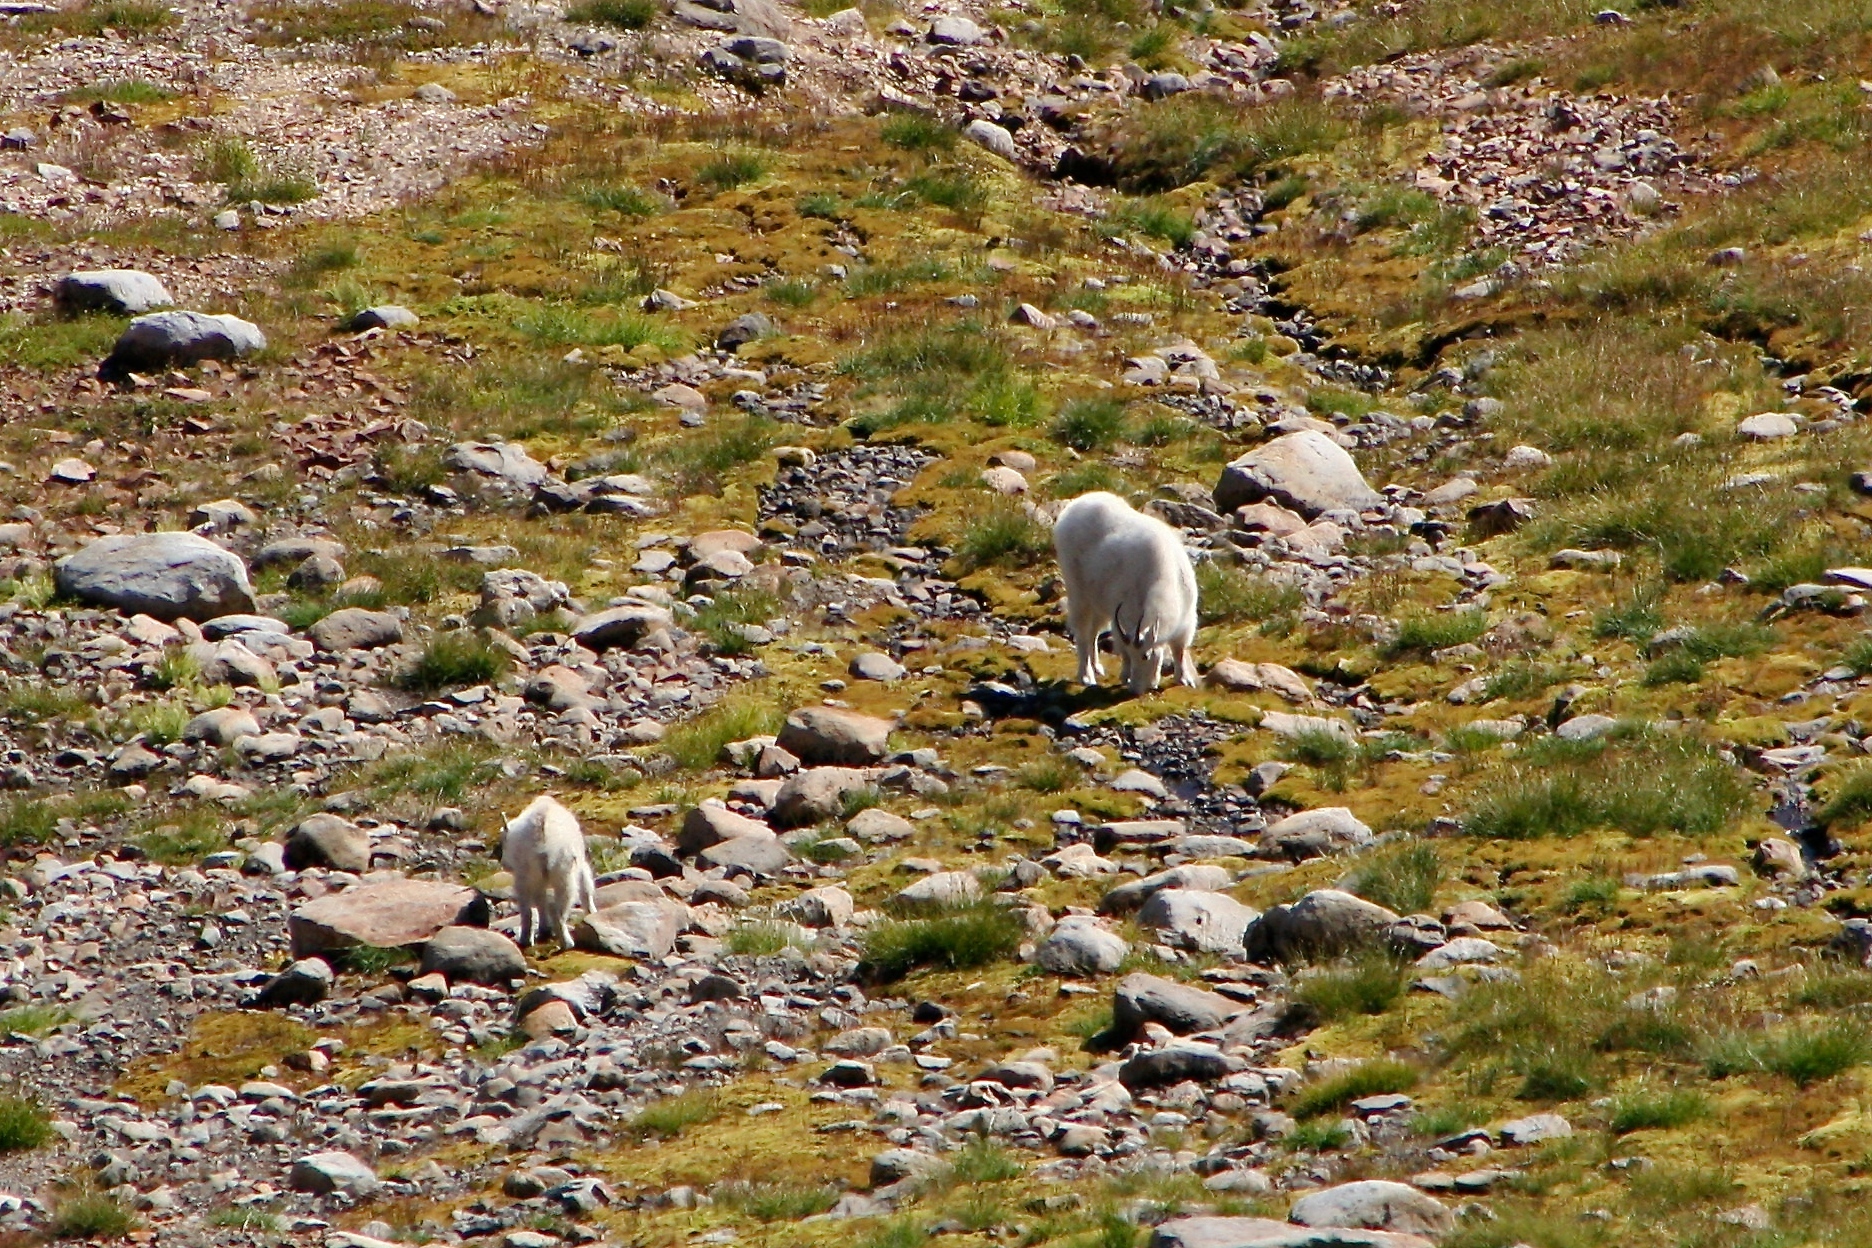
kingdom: Animalia
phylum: Chordata
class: Mammalia
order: Artiodactyla
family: Bovidae
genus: Oreamnos
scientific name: Oreamnos americanus
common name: Mountain goat
